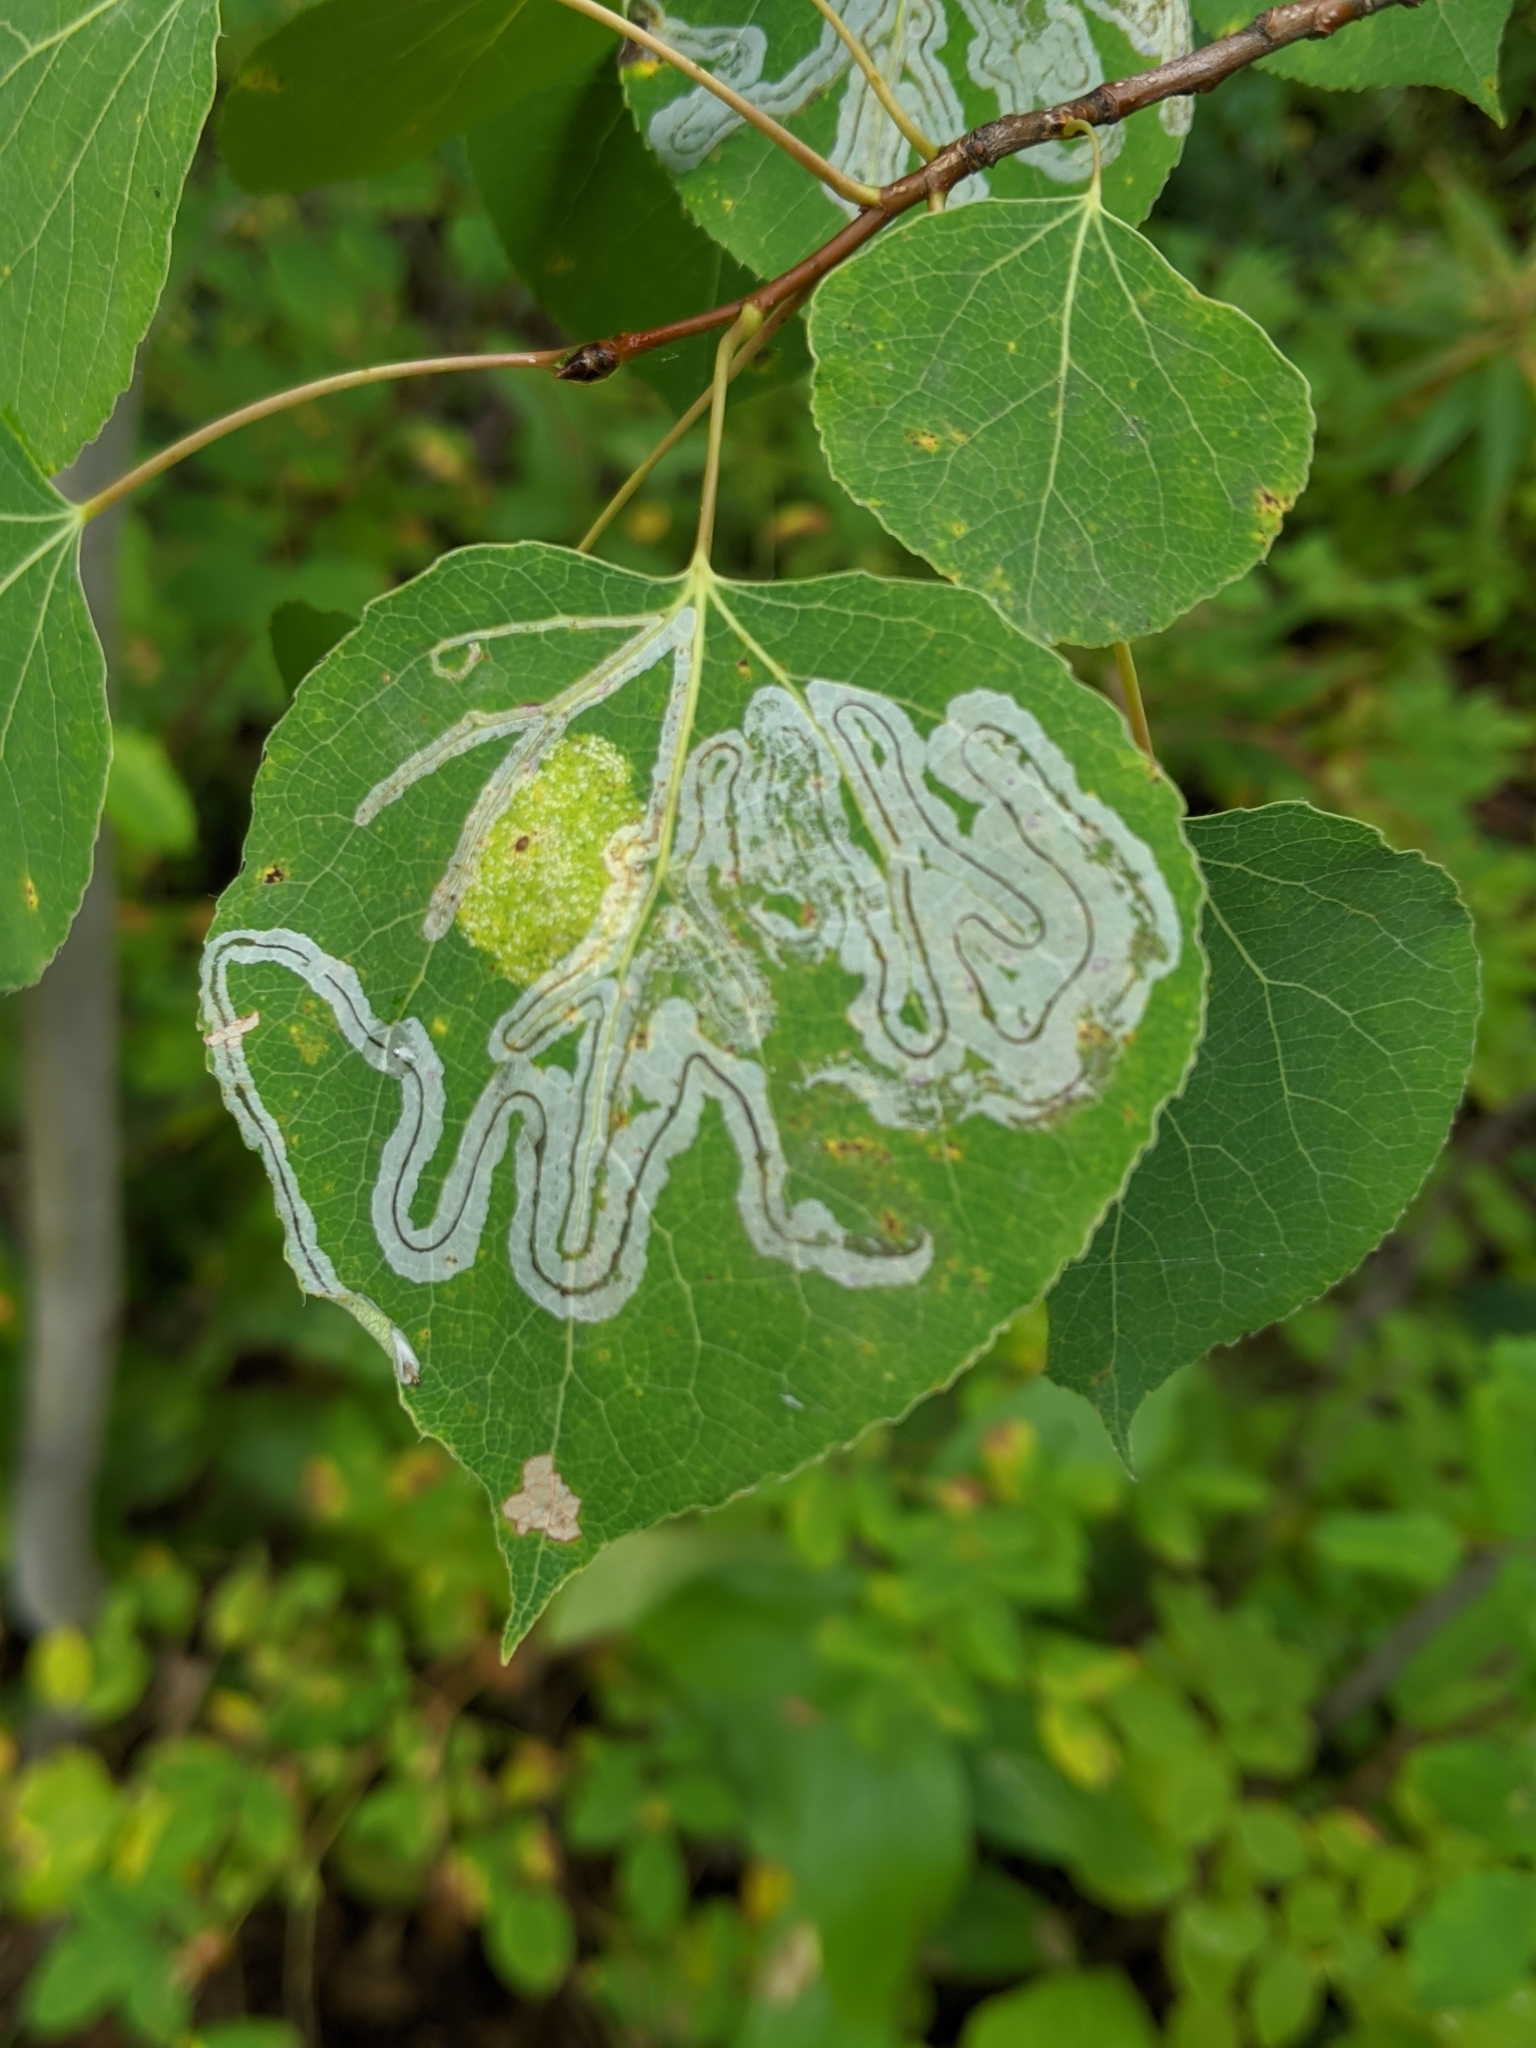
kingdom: Animalia
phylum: Arthropoda
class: Insecta
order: Lepidoptera
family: Gracillariidae
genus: Phyllocnistis
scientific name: Phyllocnistis populiella
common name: Aspen serpentine leafminer moth
